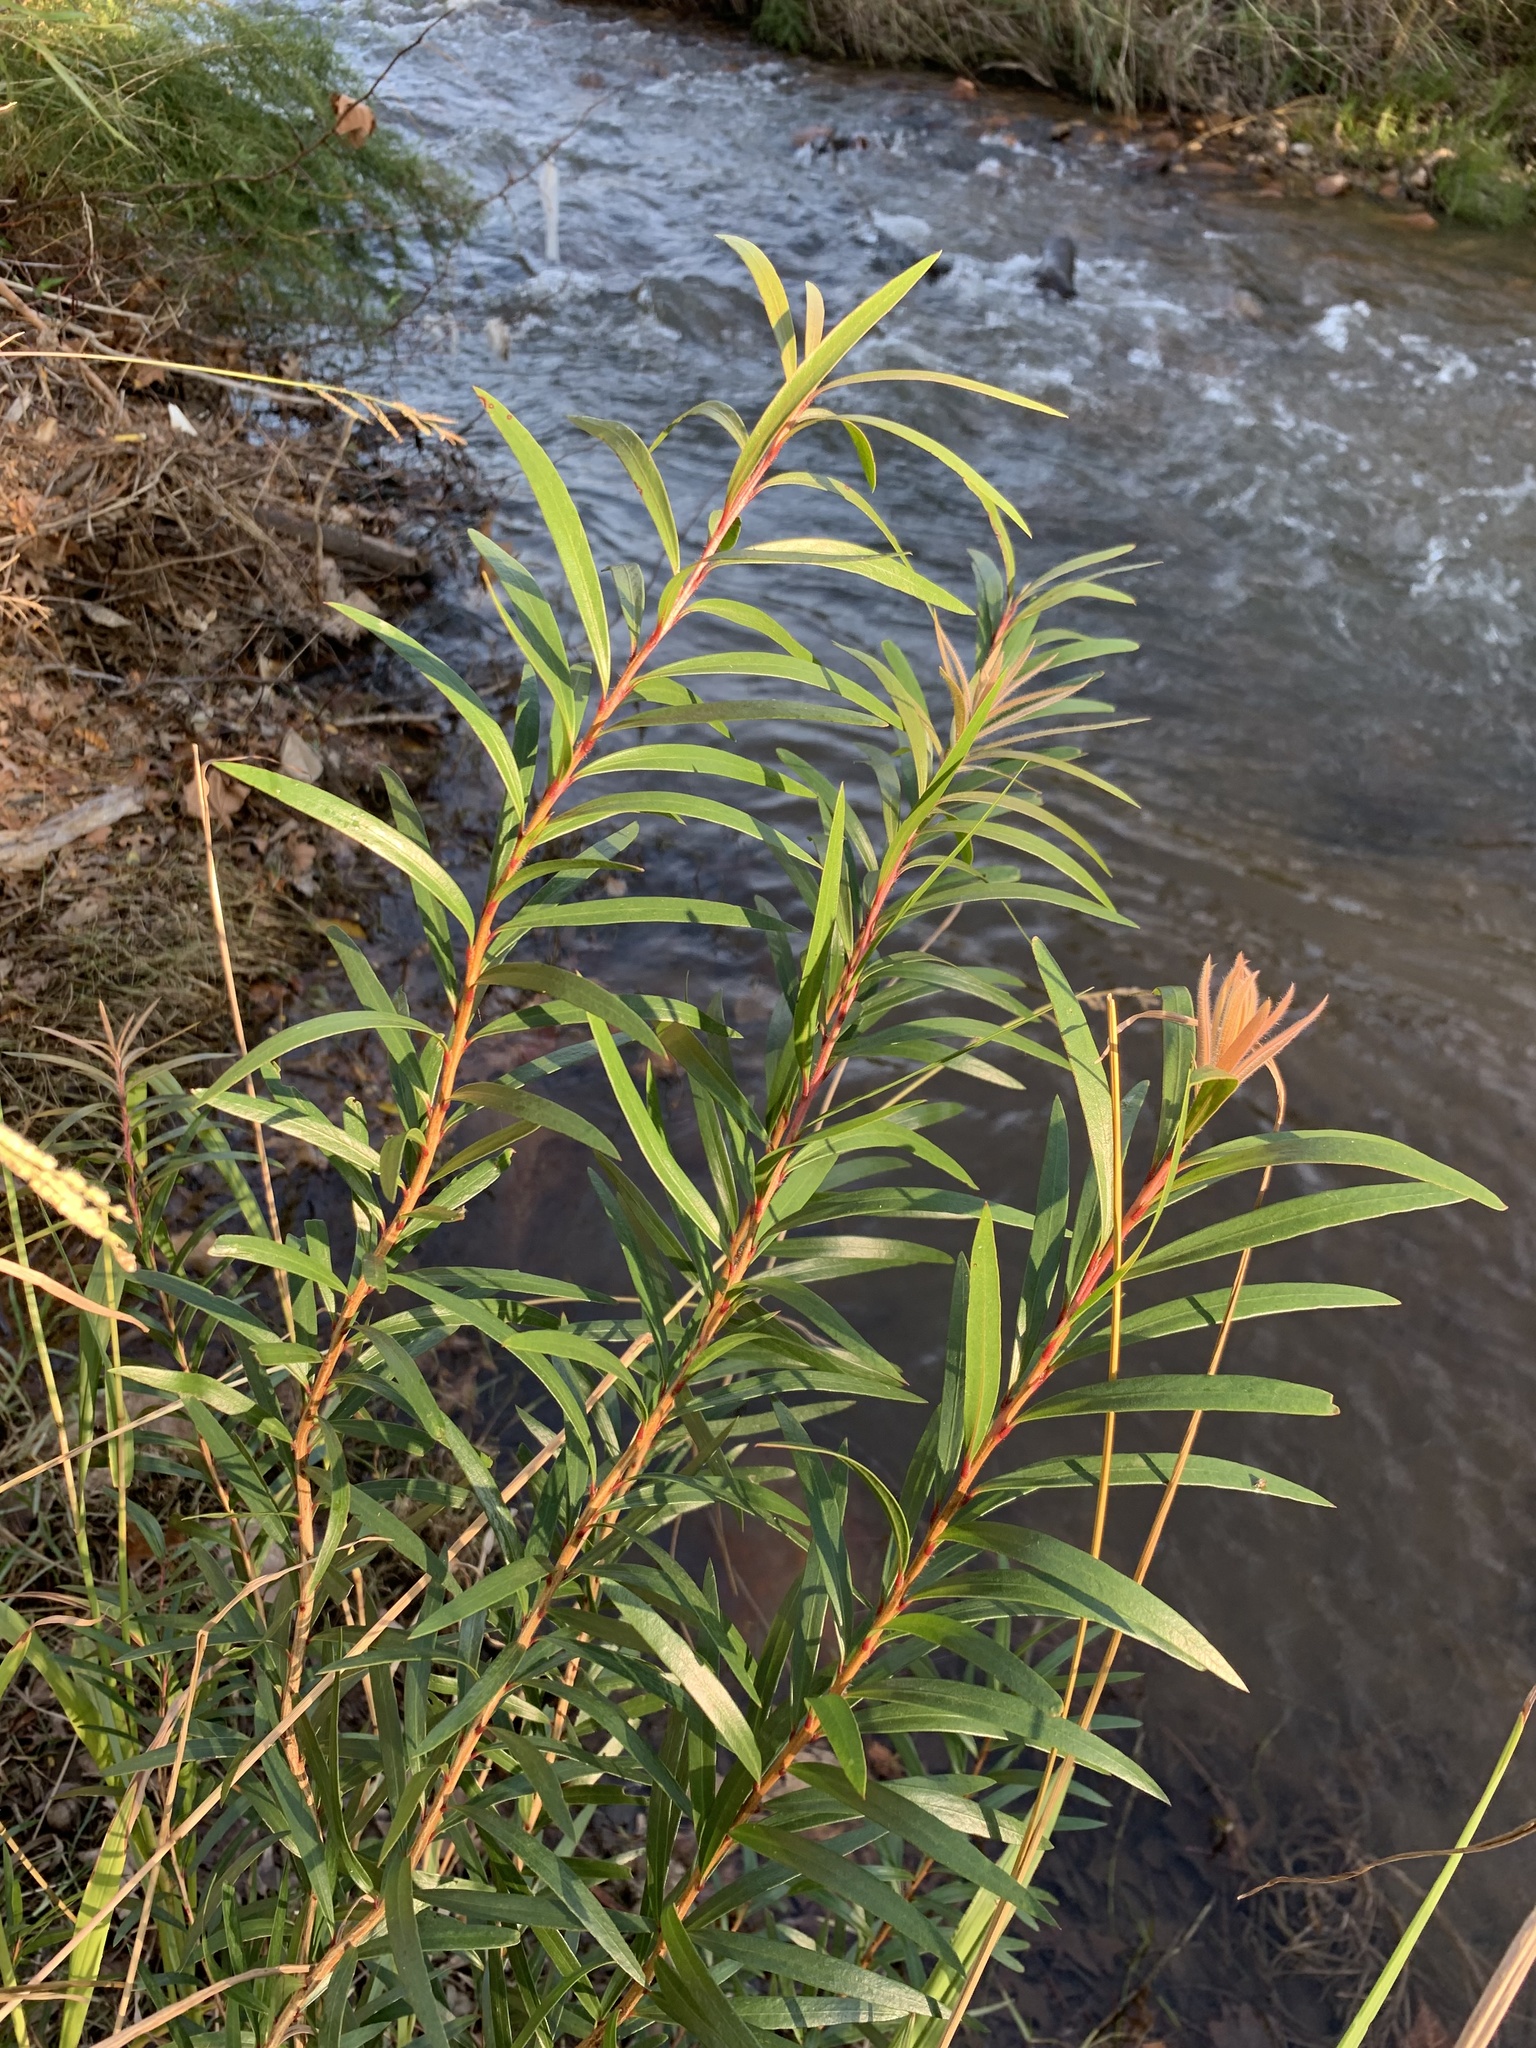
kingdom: Plantae
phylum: Tracheophyta
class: Magnoliopsida
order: Myrtales
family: Myrtaceae
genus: Callistemon
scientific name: Callistemon viminalis
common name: Drooping bottlebrush
